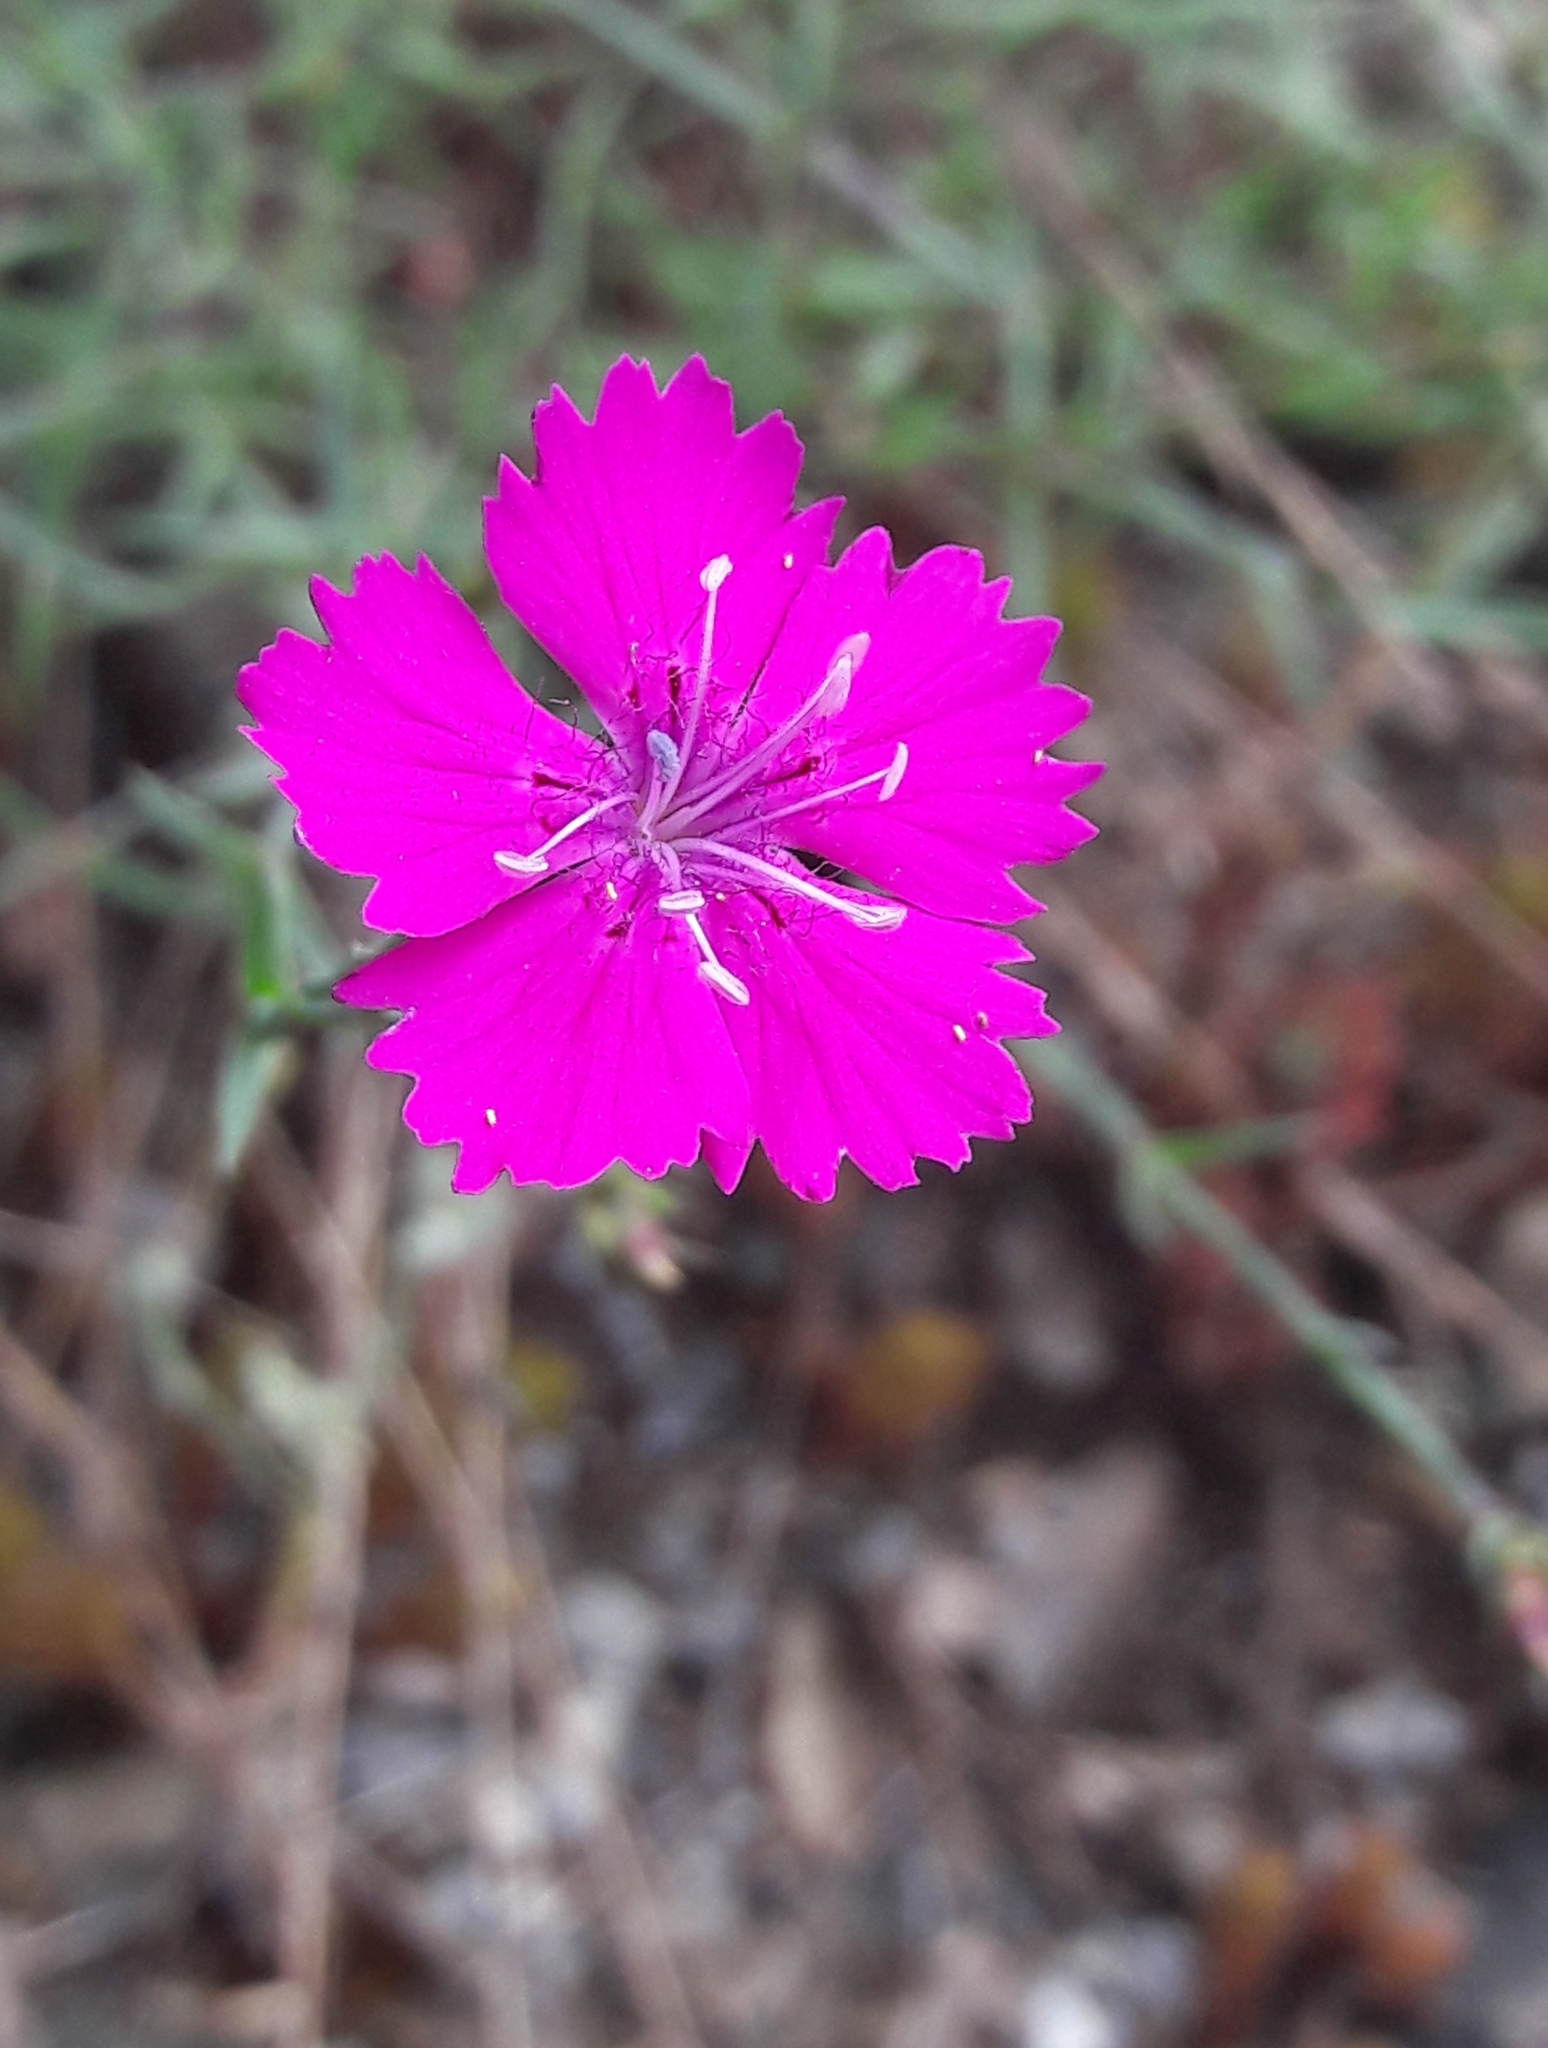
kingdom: Plantae
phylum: Tracheophyta
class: Magnoliopsida
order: Caryophyllales
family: Caryophyllaceae
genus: Dianthus
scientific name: Dianthus seguieri
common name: Ragged pink
